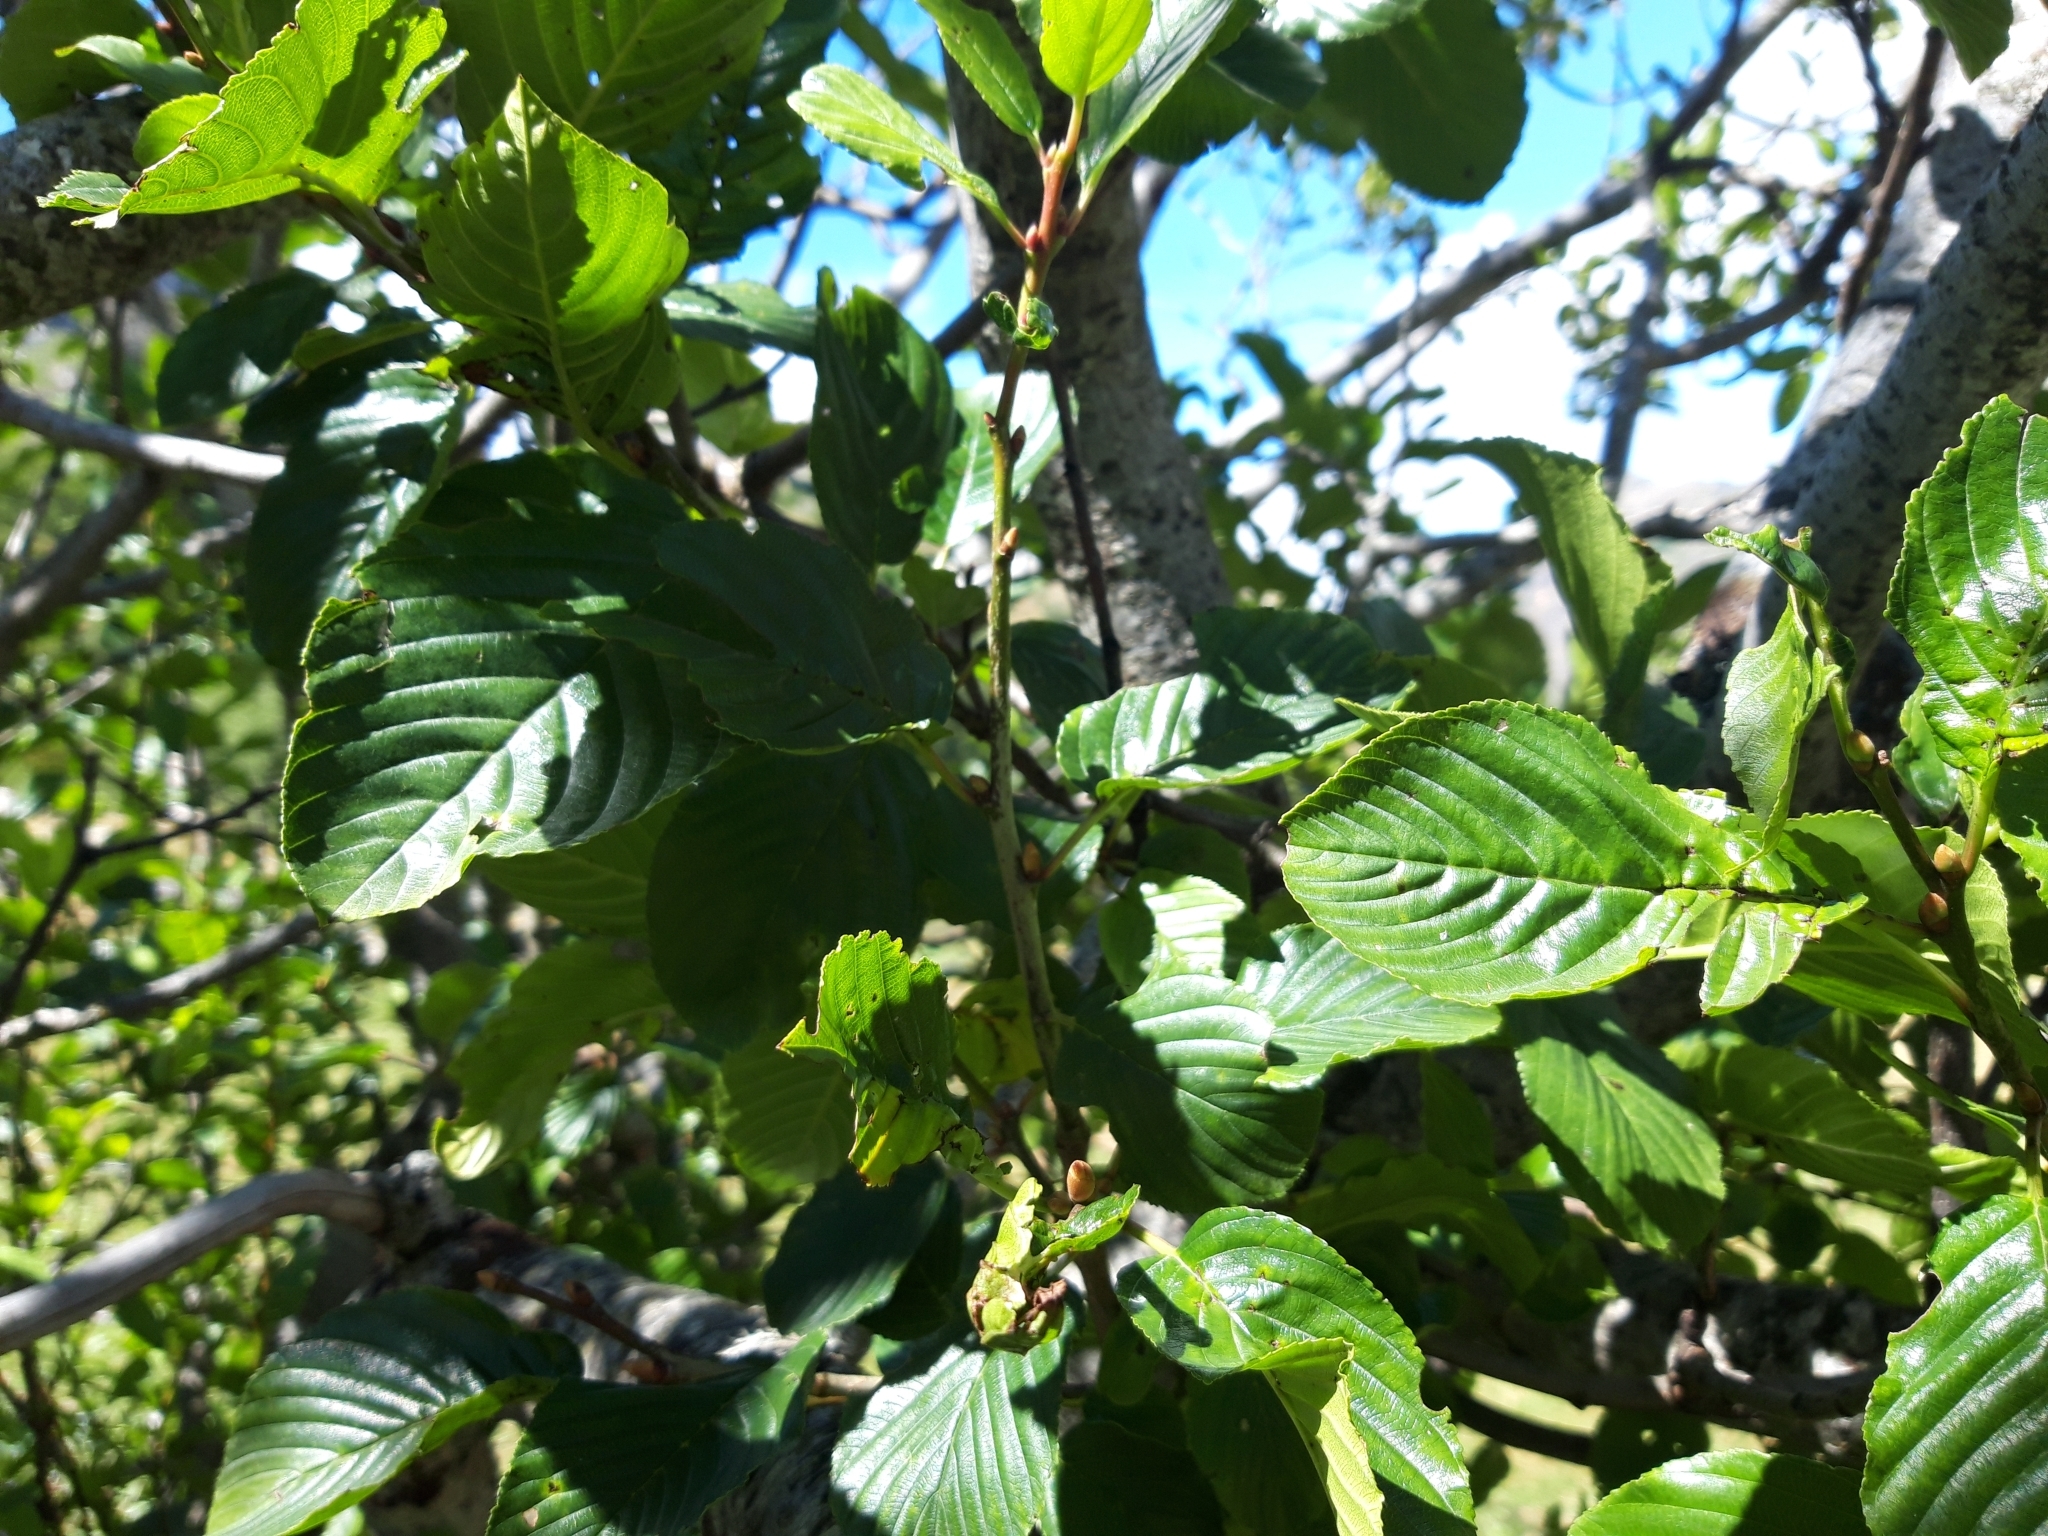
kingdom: Plantae
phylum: Tracheophyta
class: Magnoliopsida
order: Rosales
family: Rhamnaceae
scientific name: Rhamnaceae
